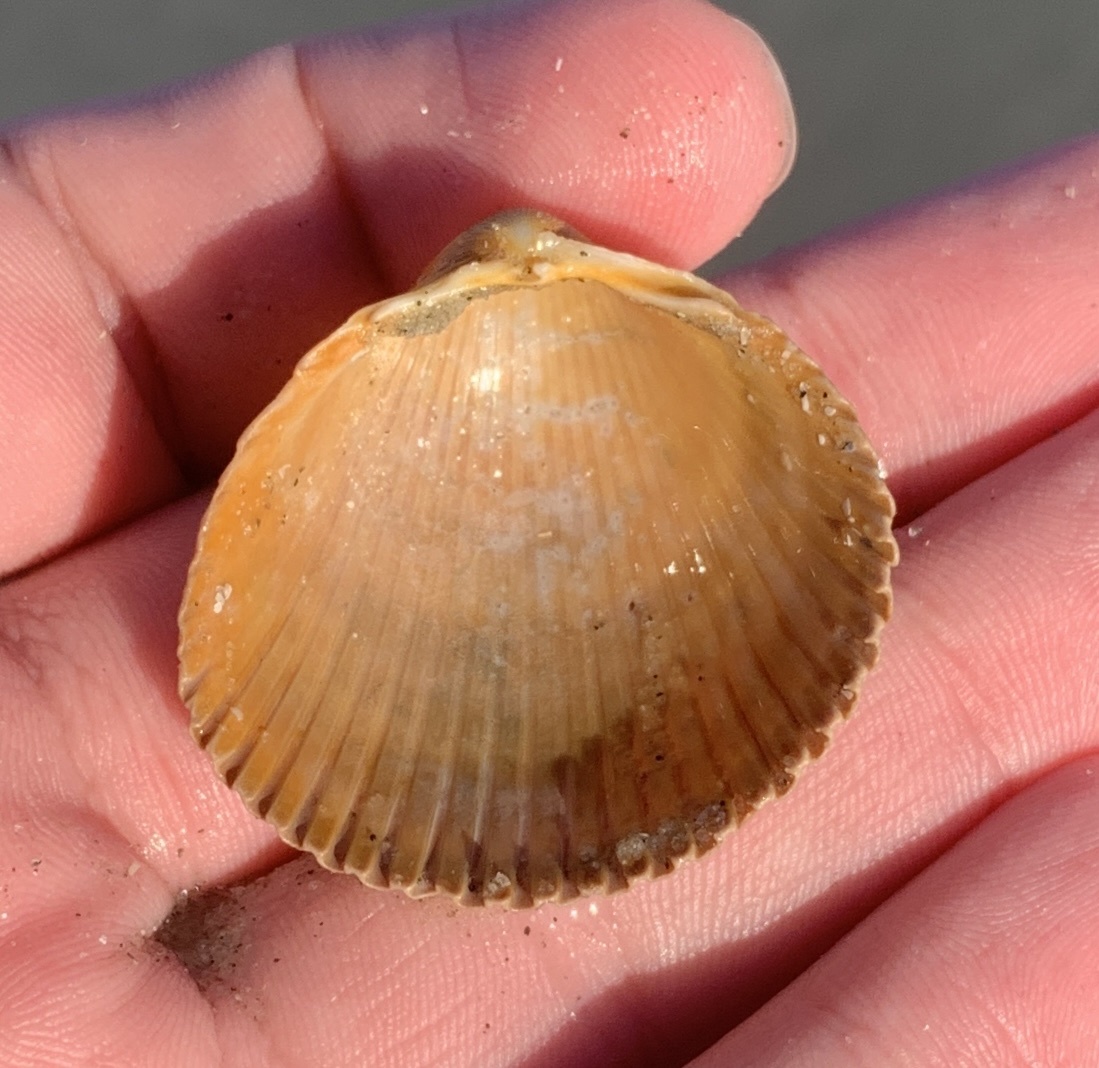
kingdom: Animalia
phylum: Mollusca
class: Bivalvia
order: Cardiida
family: Cardiidae
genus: Dinocardium
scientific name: Dinocardium robustum
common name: Atlantic giant cockle
